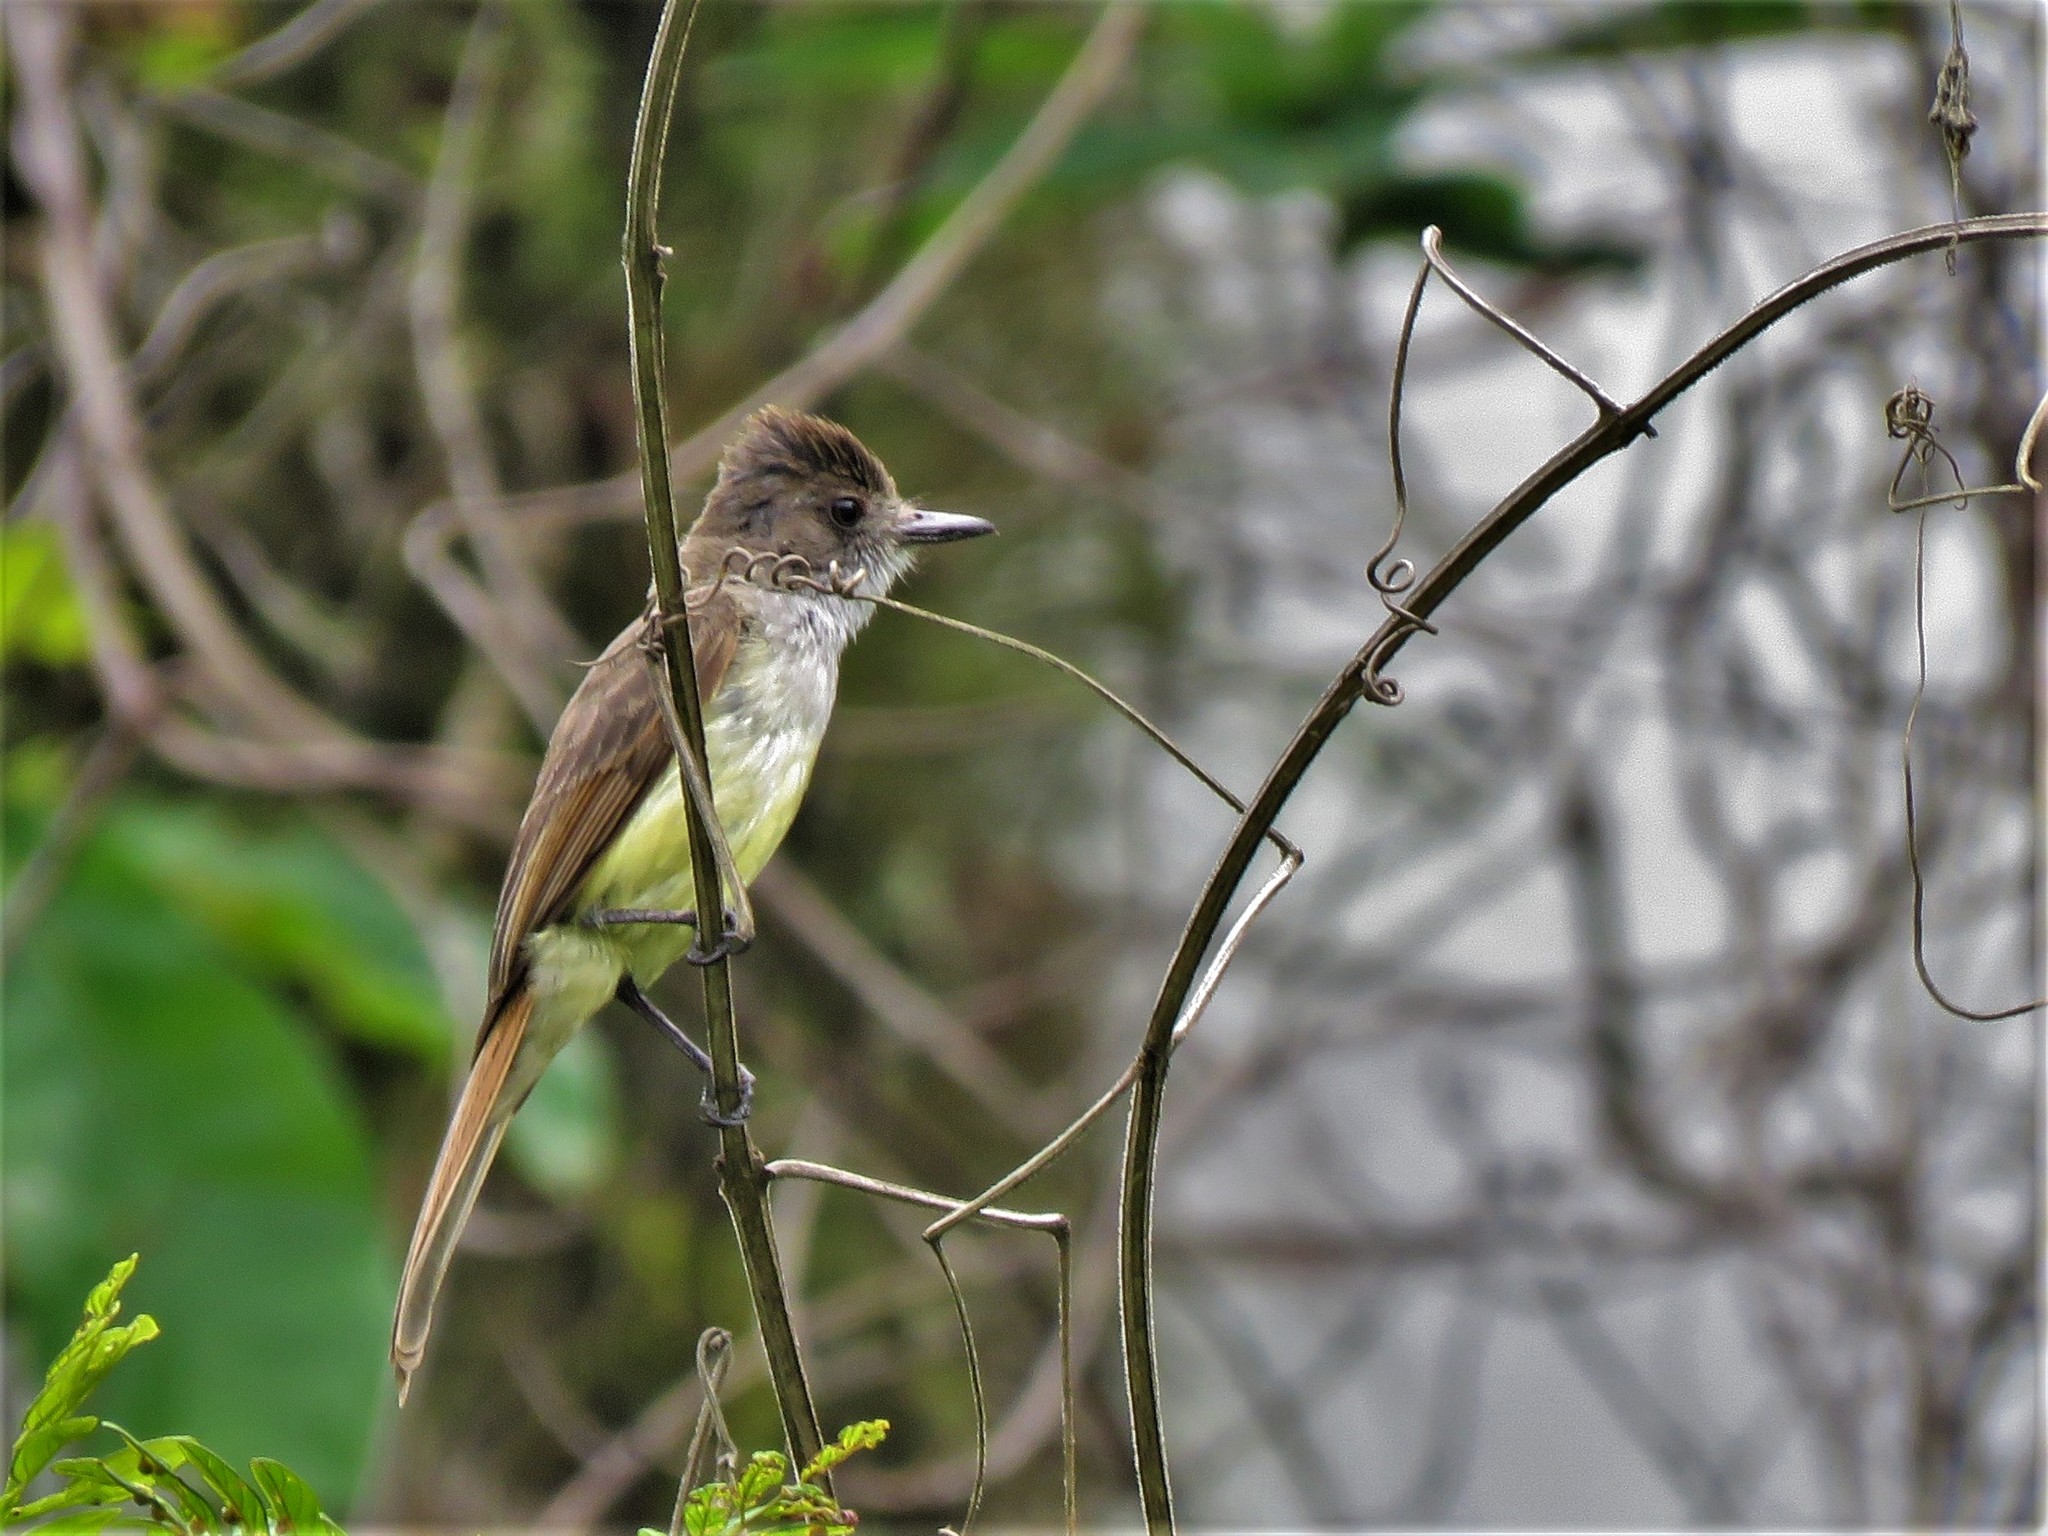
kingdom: Animalia
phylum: Chordata
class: Aves
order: Passeriformes
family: Tyrannidae
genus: Myiarchus
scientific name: Myiarchus tuberculifer
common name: Dusky-capped flycatcher
